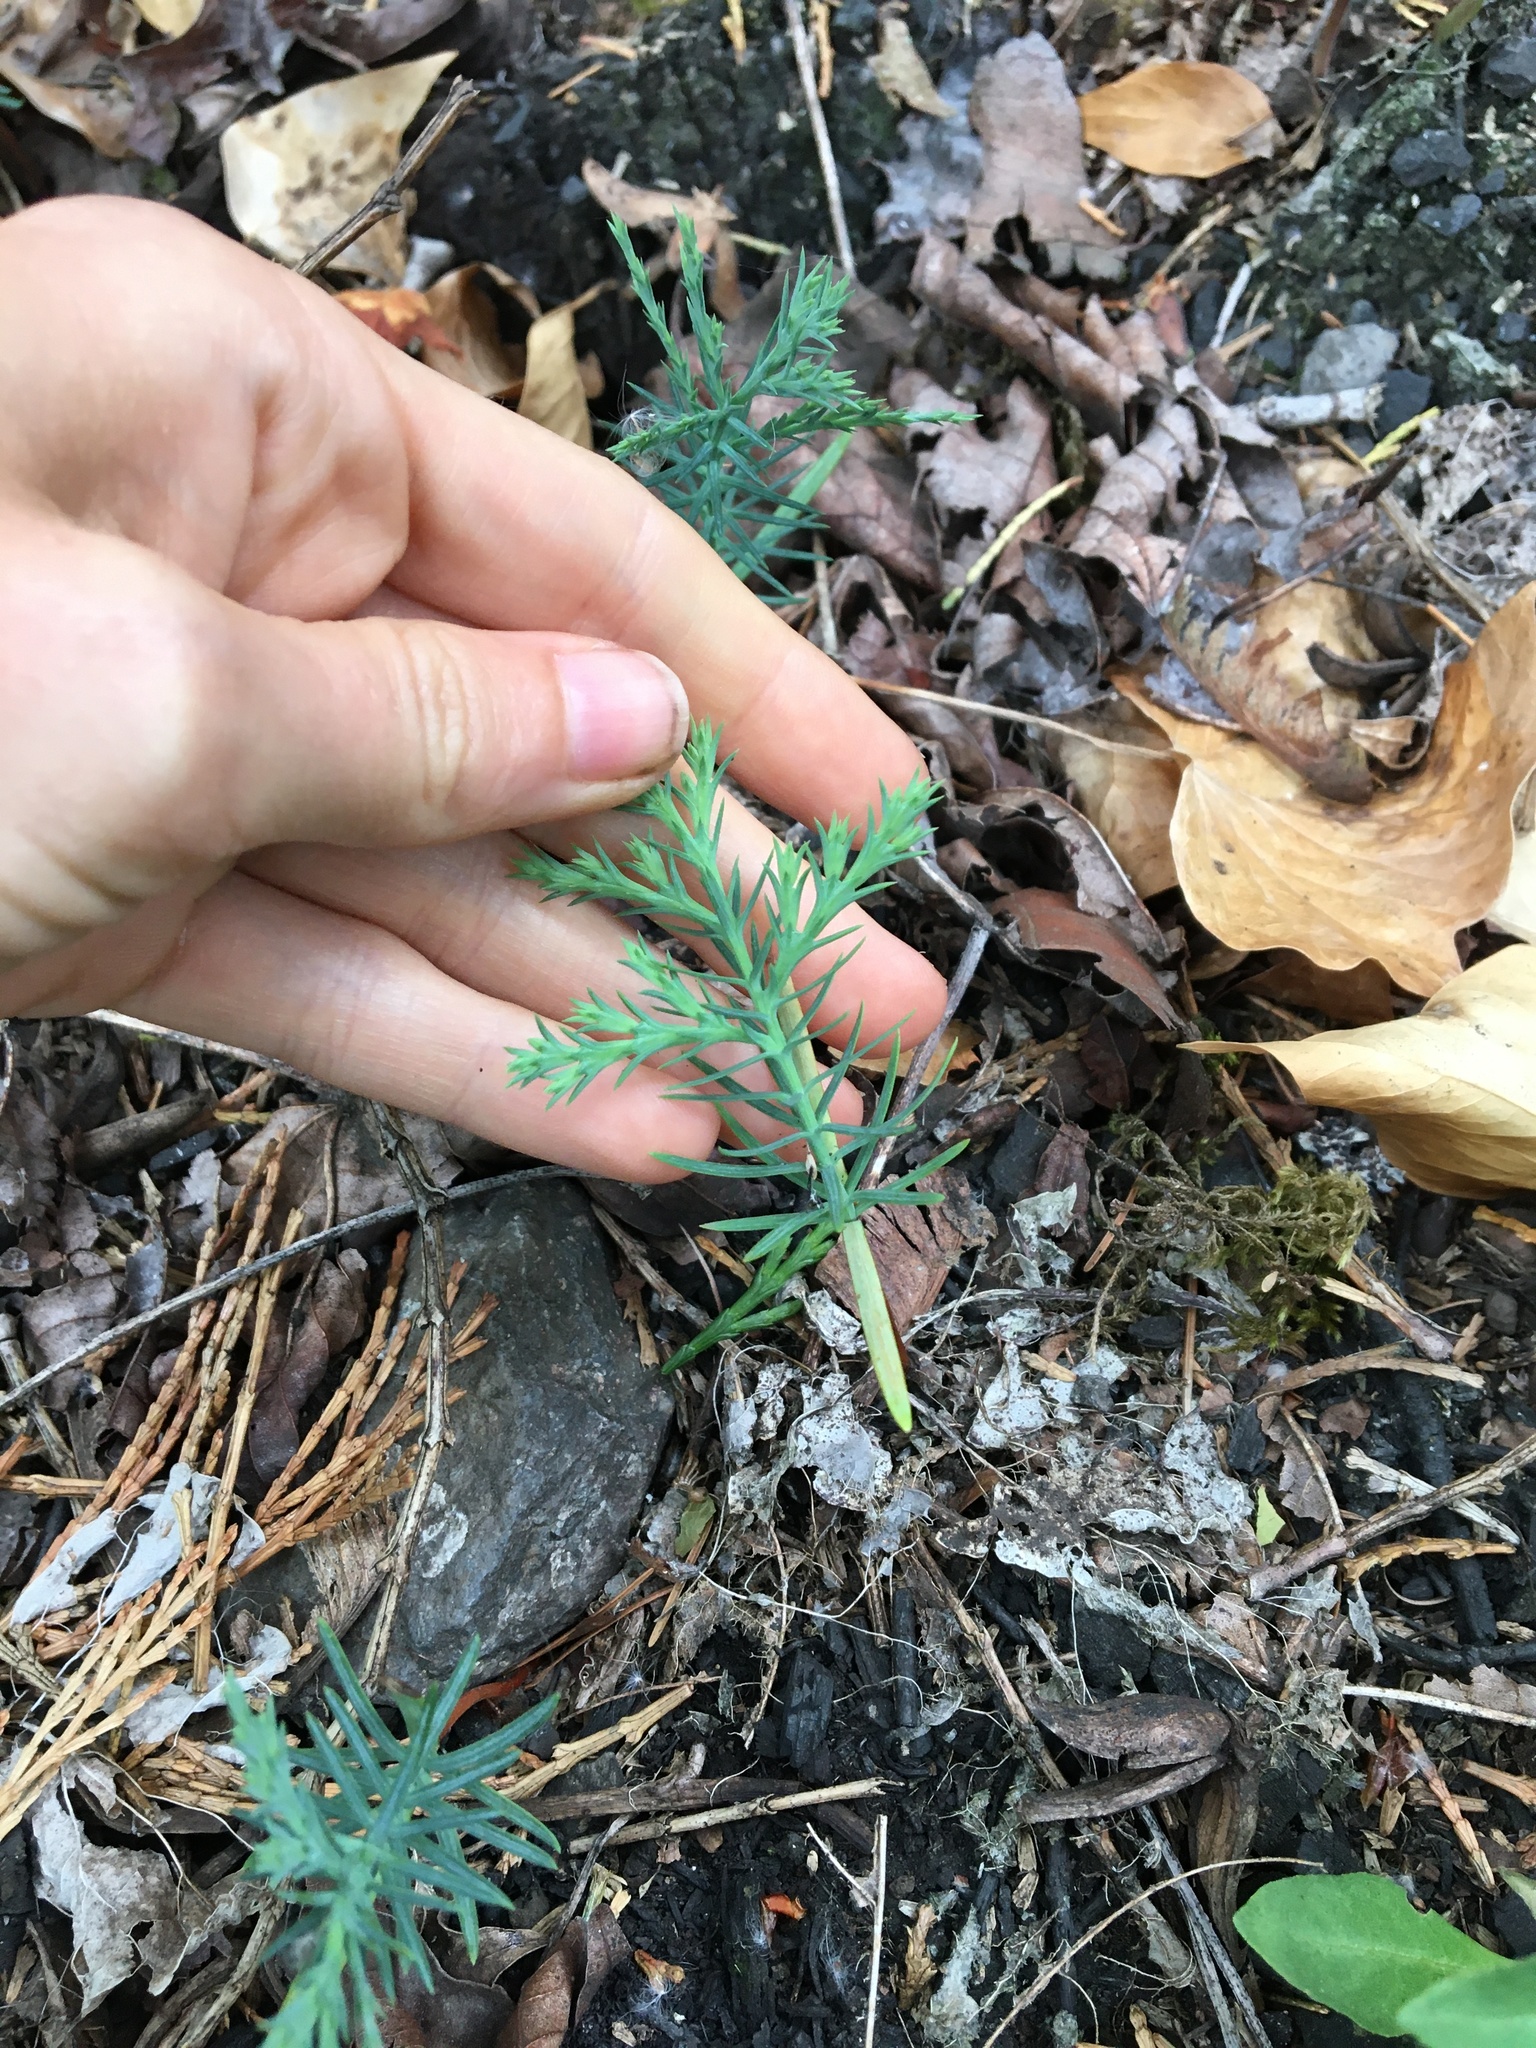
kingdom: Plantae
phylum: Tracheophyta
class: Pinopsida
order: Pinales
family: Cupressaceae
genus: Calocedrus
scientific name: Calocedrus decurrens
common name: Californian incense-cedar
